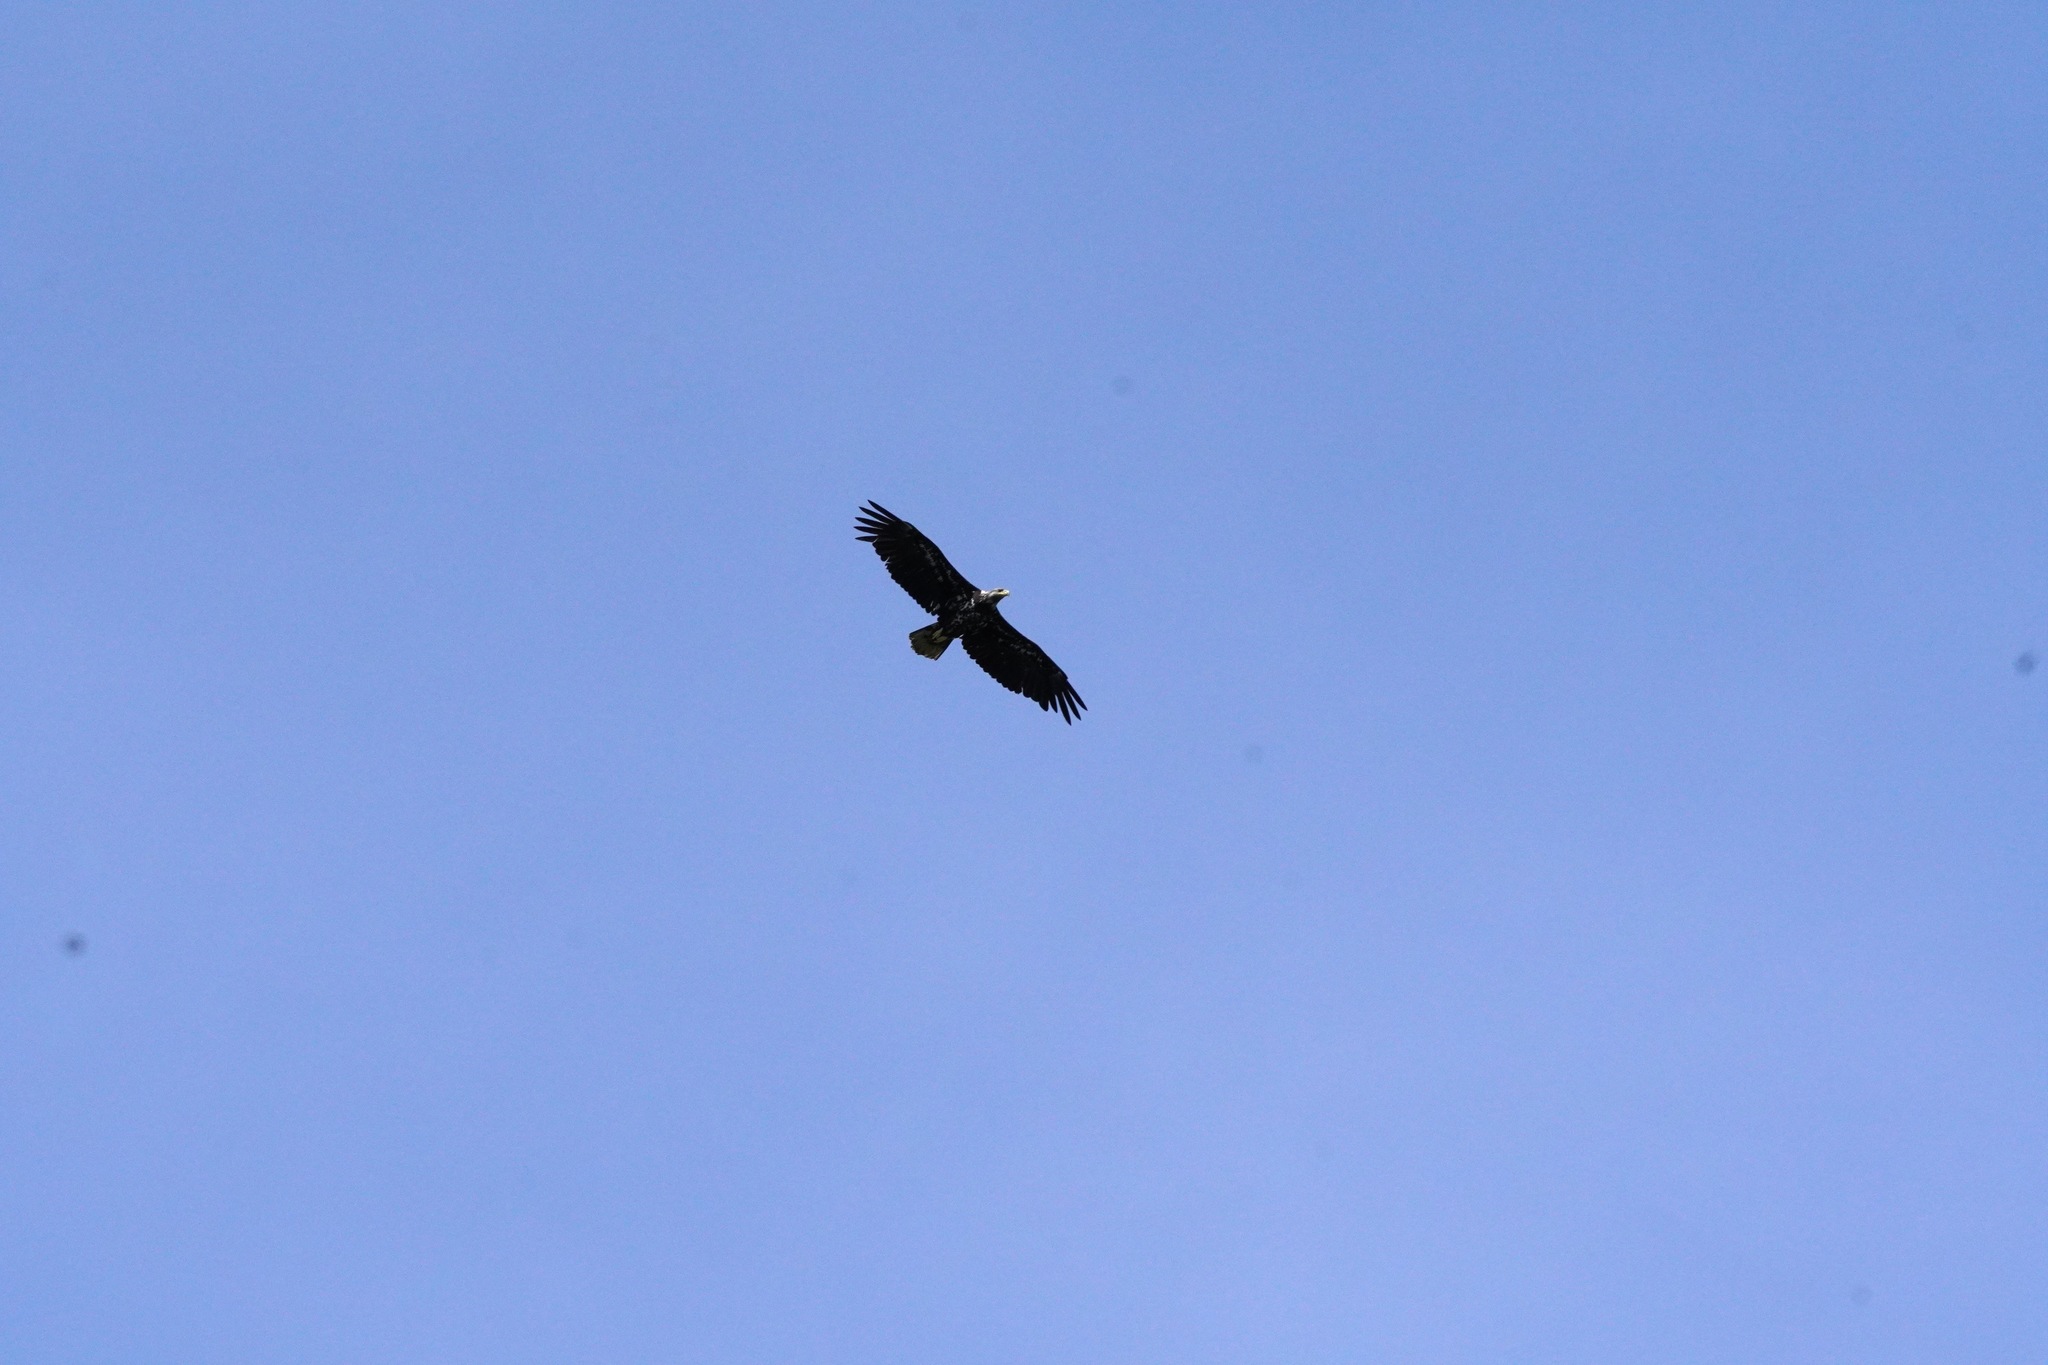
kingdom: Animalia
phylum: Chordata
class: Aves
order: Accipitriformes
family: Accipitridae
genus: Haliaeetus
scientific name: Haliaeetus leucocephalus
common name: Bald eagle
